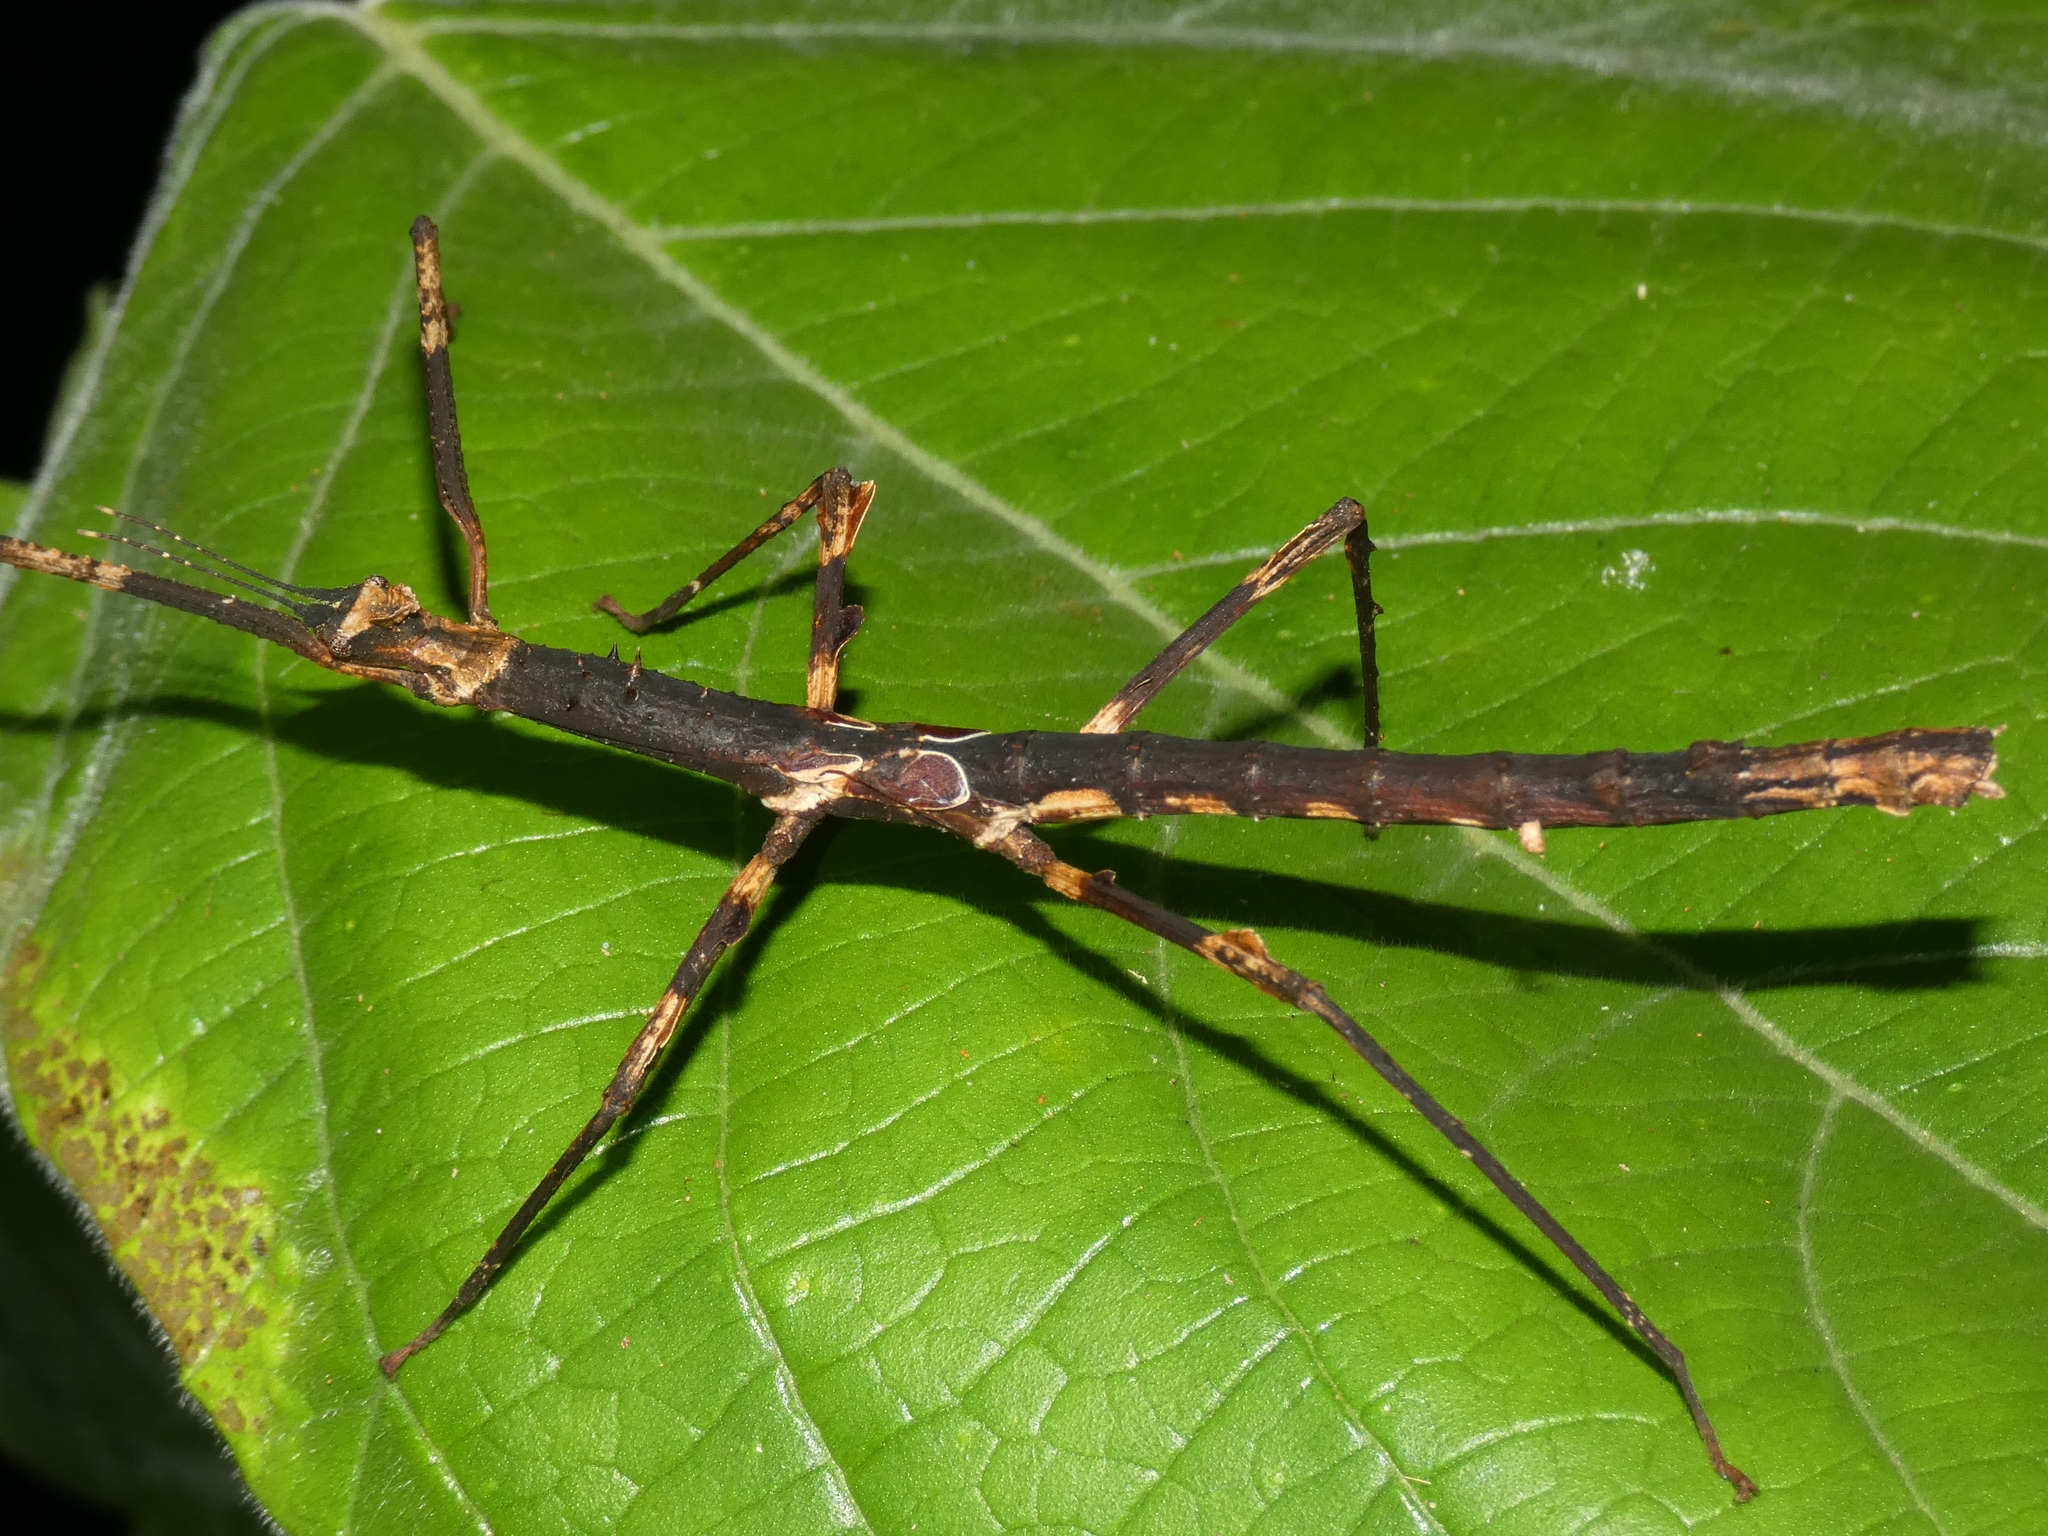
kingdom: Animalia
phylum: Arthropoda
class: Insecta
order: Phasmida
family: Phasmatidae
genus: Onchestus
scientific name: Onchestus rentzi
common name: Rentz's stick-insect
